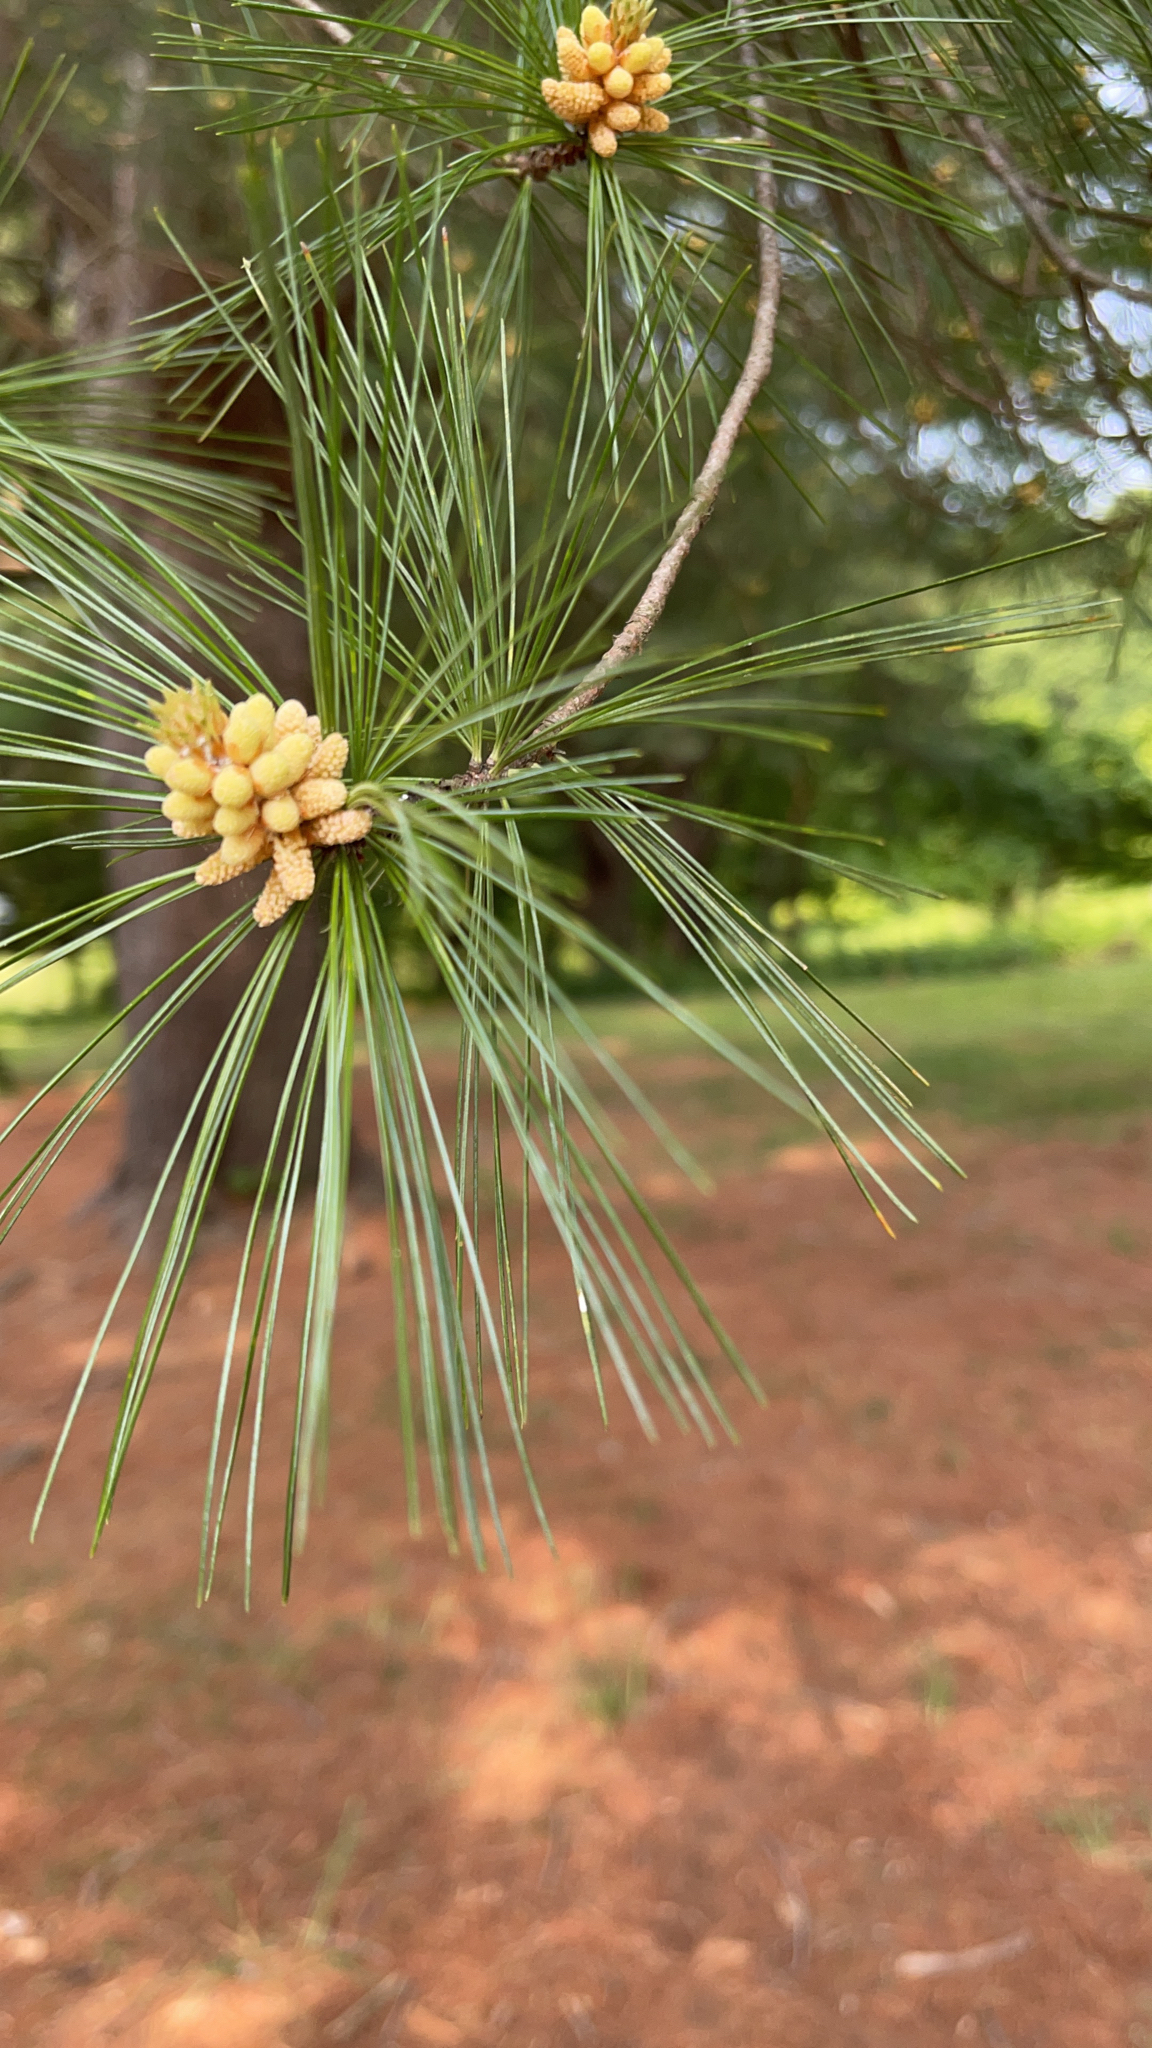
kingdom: Plantae
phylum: Tracheophyta
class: Pinopsida
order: Pinales
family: Pinaceae
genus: Pinus
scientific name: Pinus strobus
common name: Weymouth pine
